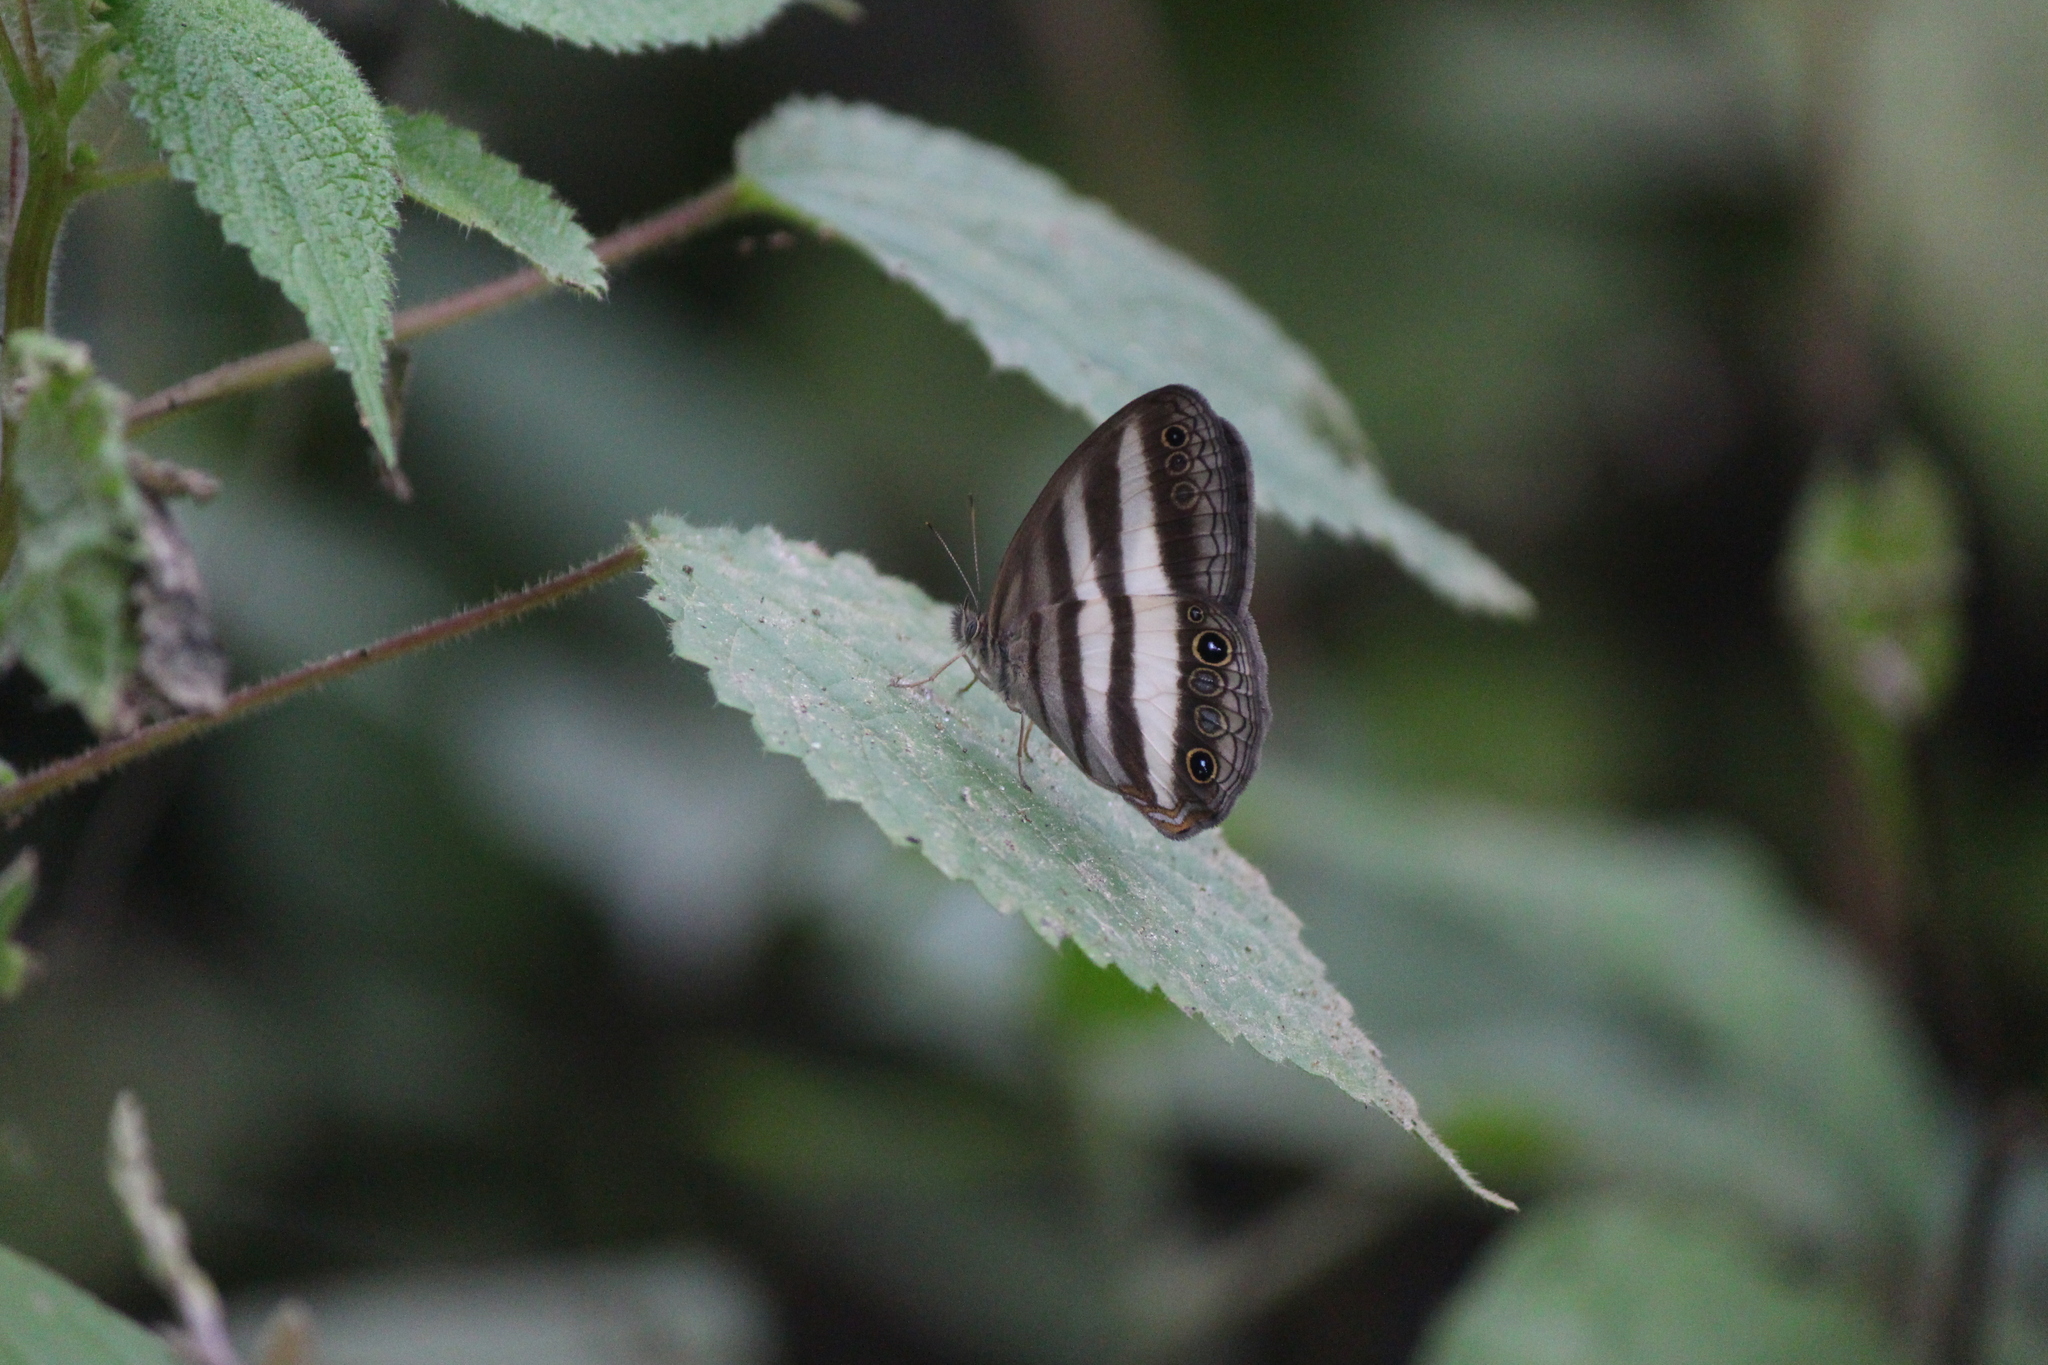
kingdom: Animalia
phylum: Arthropoda
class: Insecta
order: Lepidoptera
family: Nymphalidae
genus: Pareuptychia
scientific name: Pareuptychia hesione
